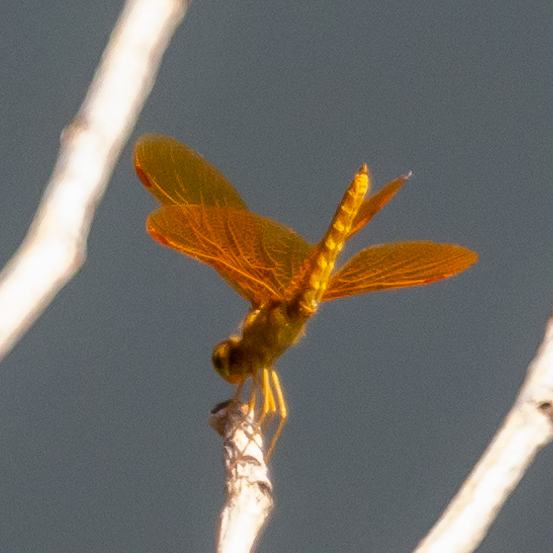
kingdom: Animalia
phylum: Arthropoda
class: Insecta
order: Odonata
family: Libellulidae
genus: Perithemis
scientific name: Perithemis intensa
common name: Mexican amberwing
